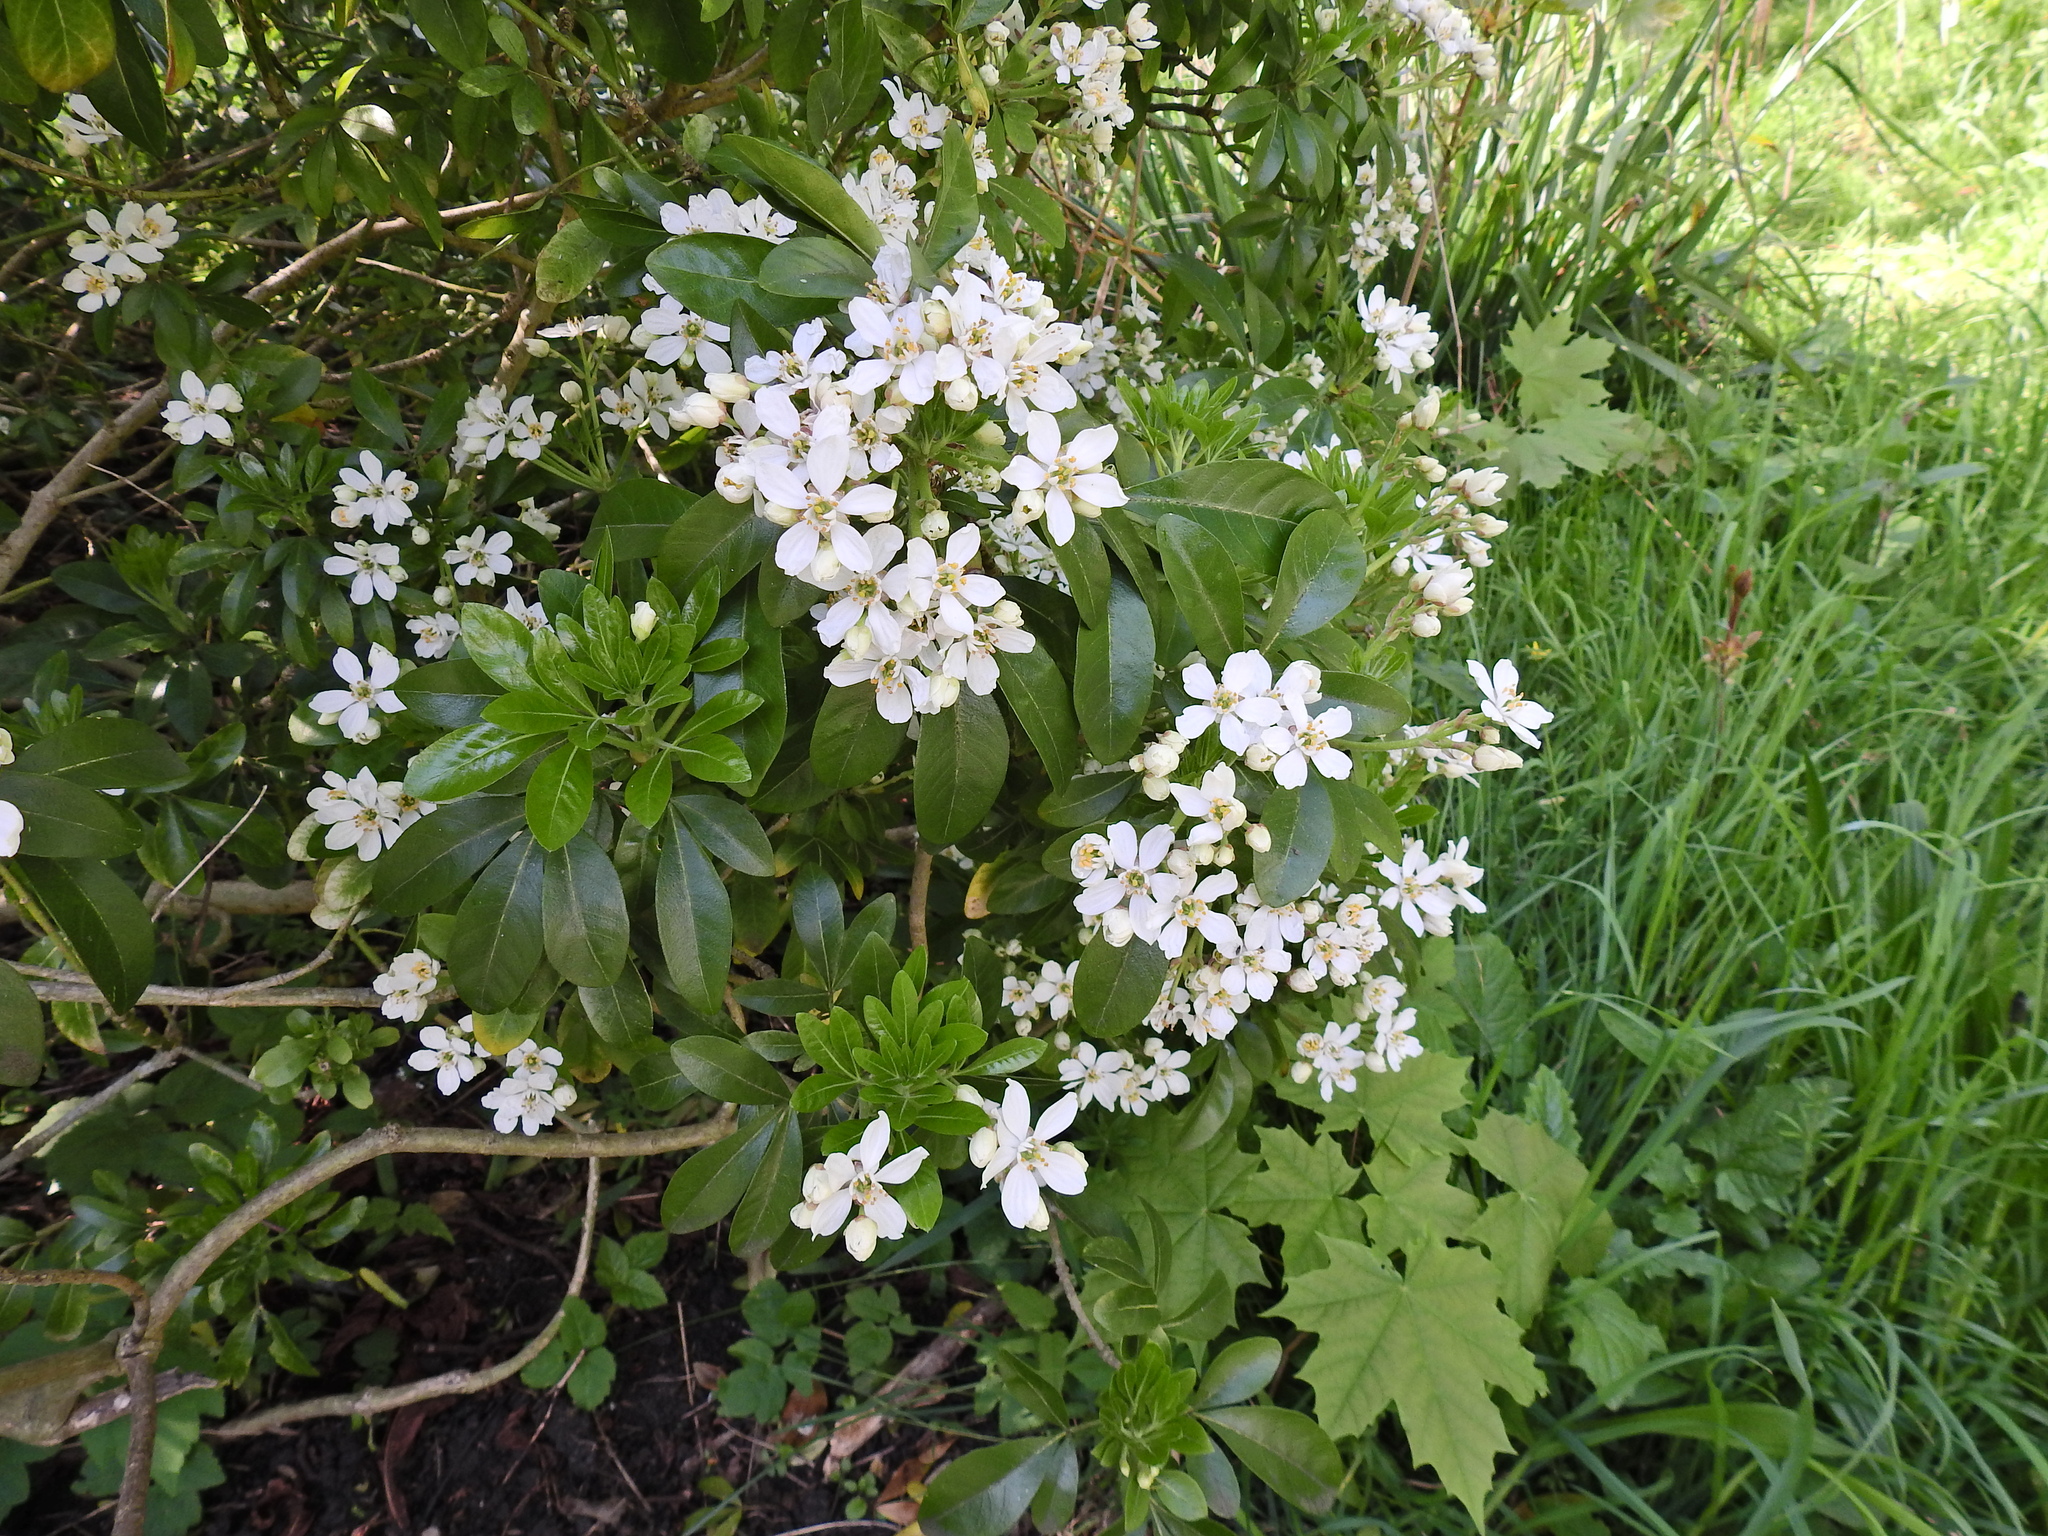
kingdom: Plantae
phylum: Tracheophyta
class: Magnoliopsida
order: Sapindales
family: Rutaceae
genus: Choisya
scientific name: Choisya ternata
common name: Mexican orange
